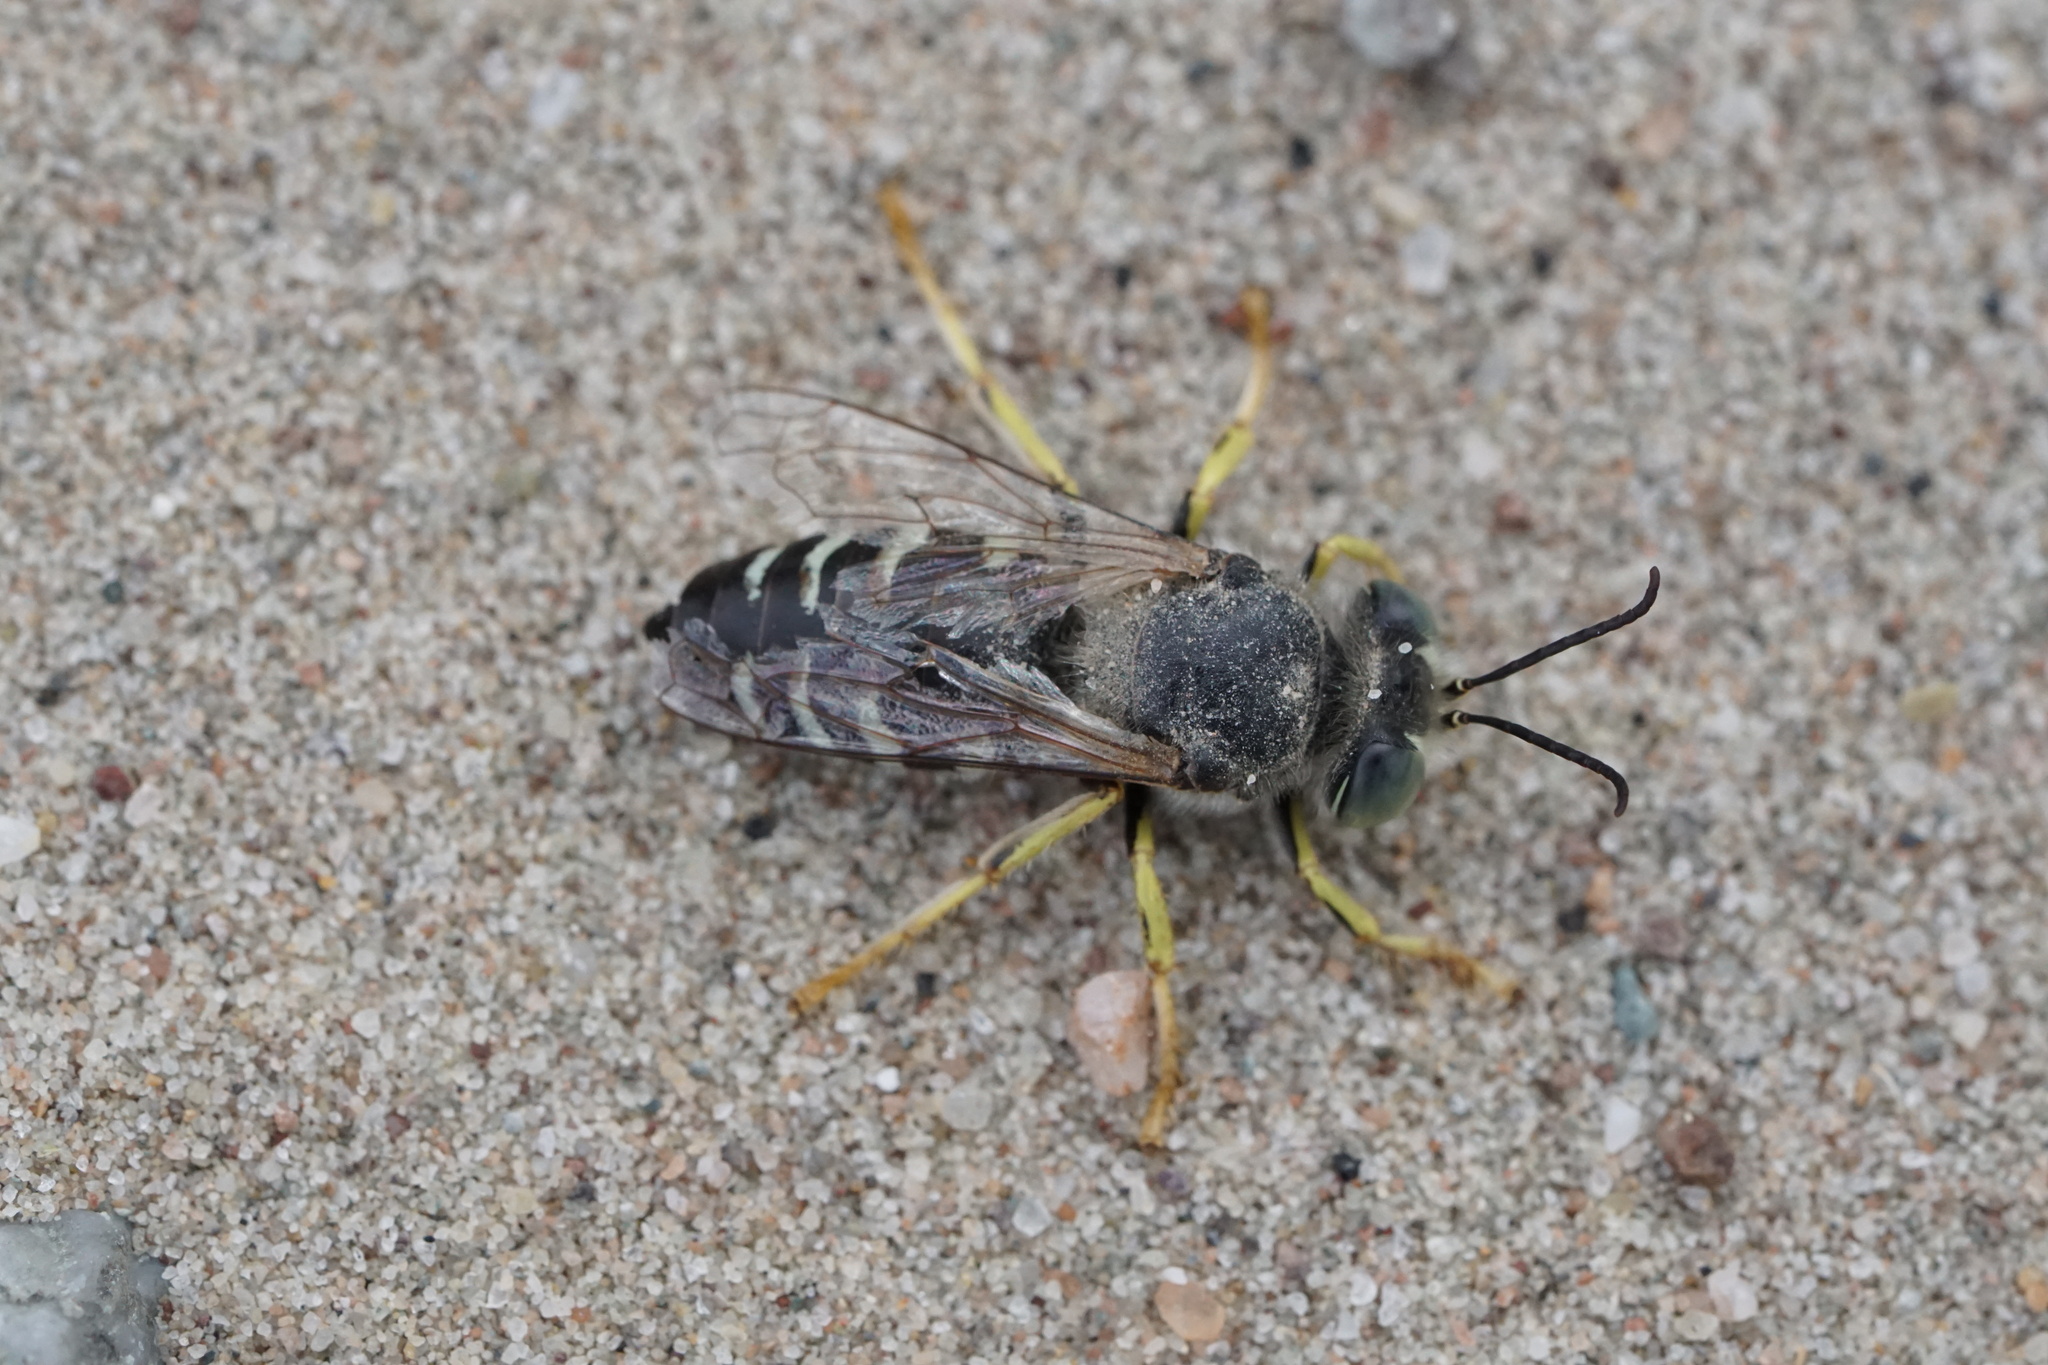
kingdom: Animalia
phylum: Arthropoda
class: Insecta
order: Hymenoptera
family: Crabronidae
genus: Bembix
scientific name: Bembix americana
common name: American sand wasp
